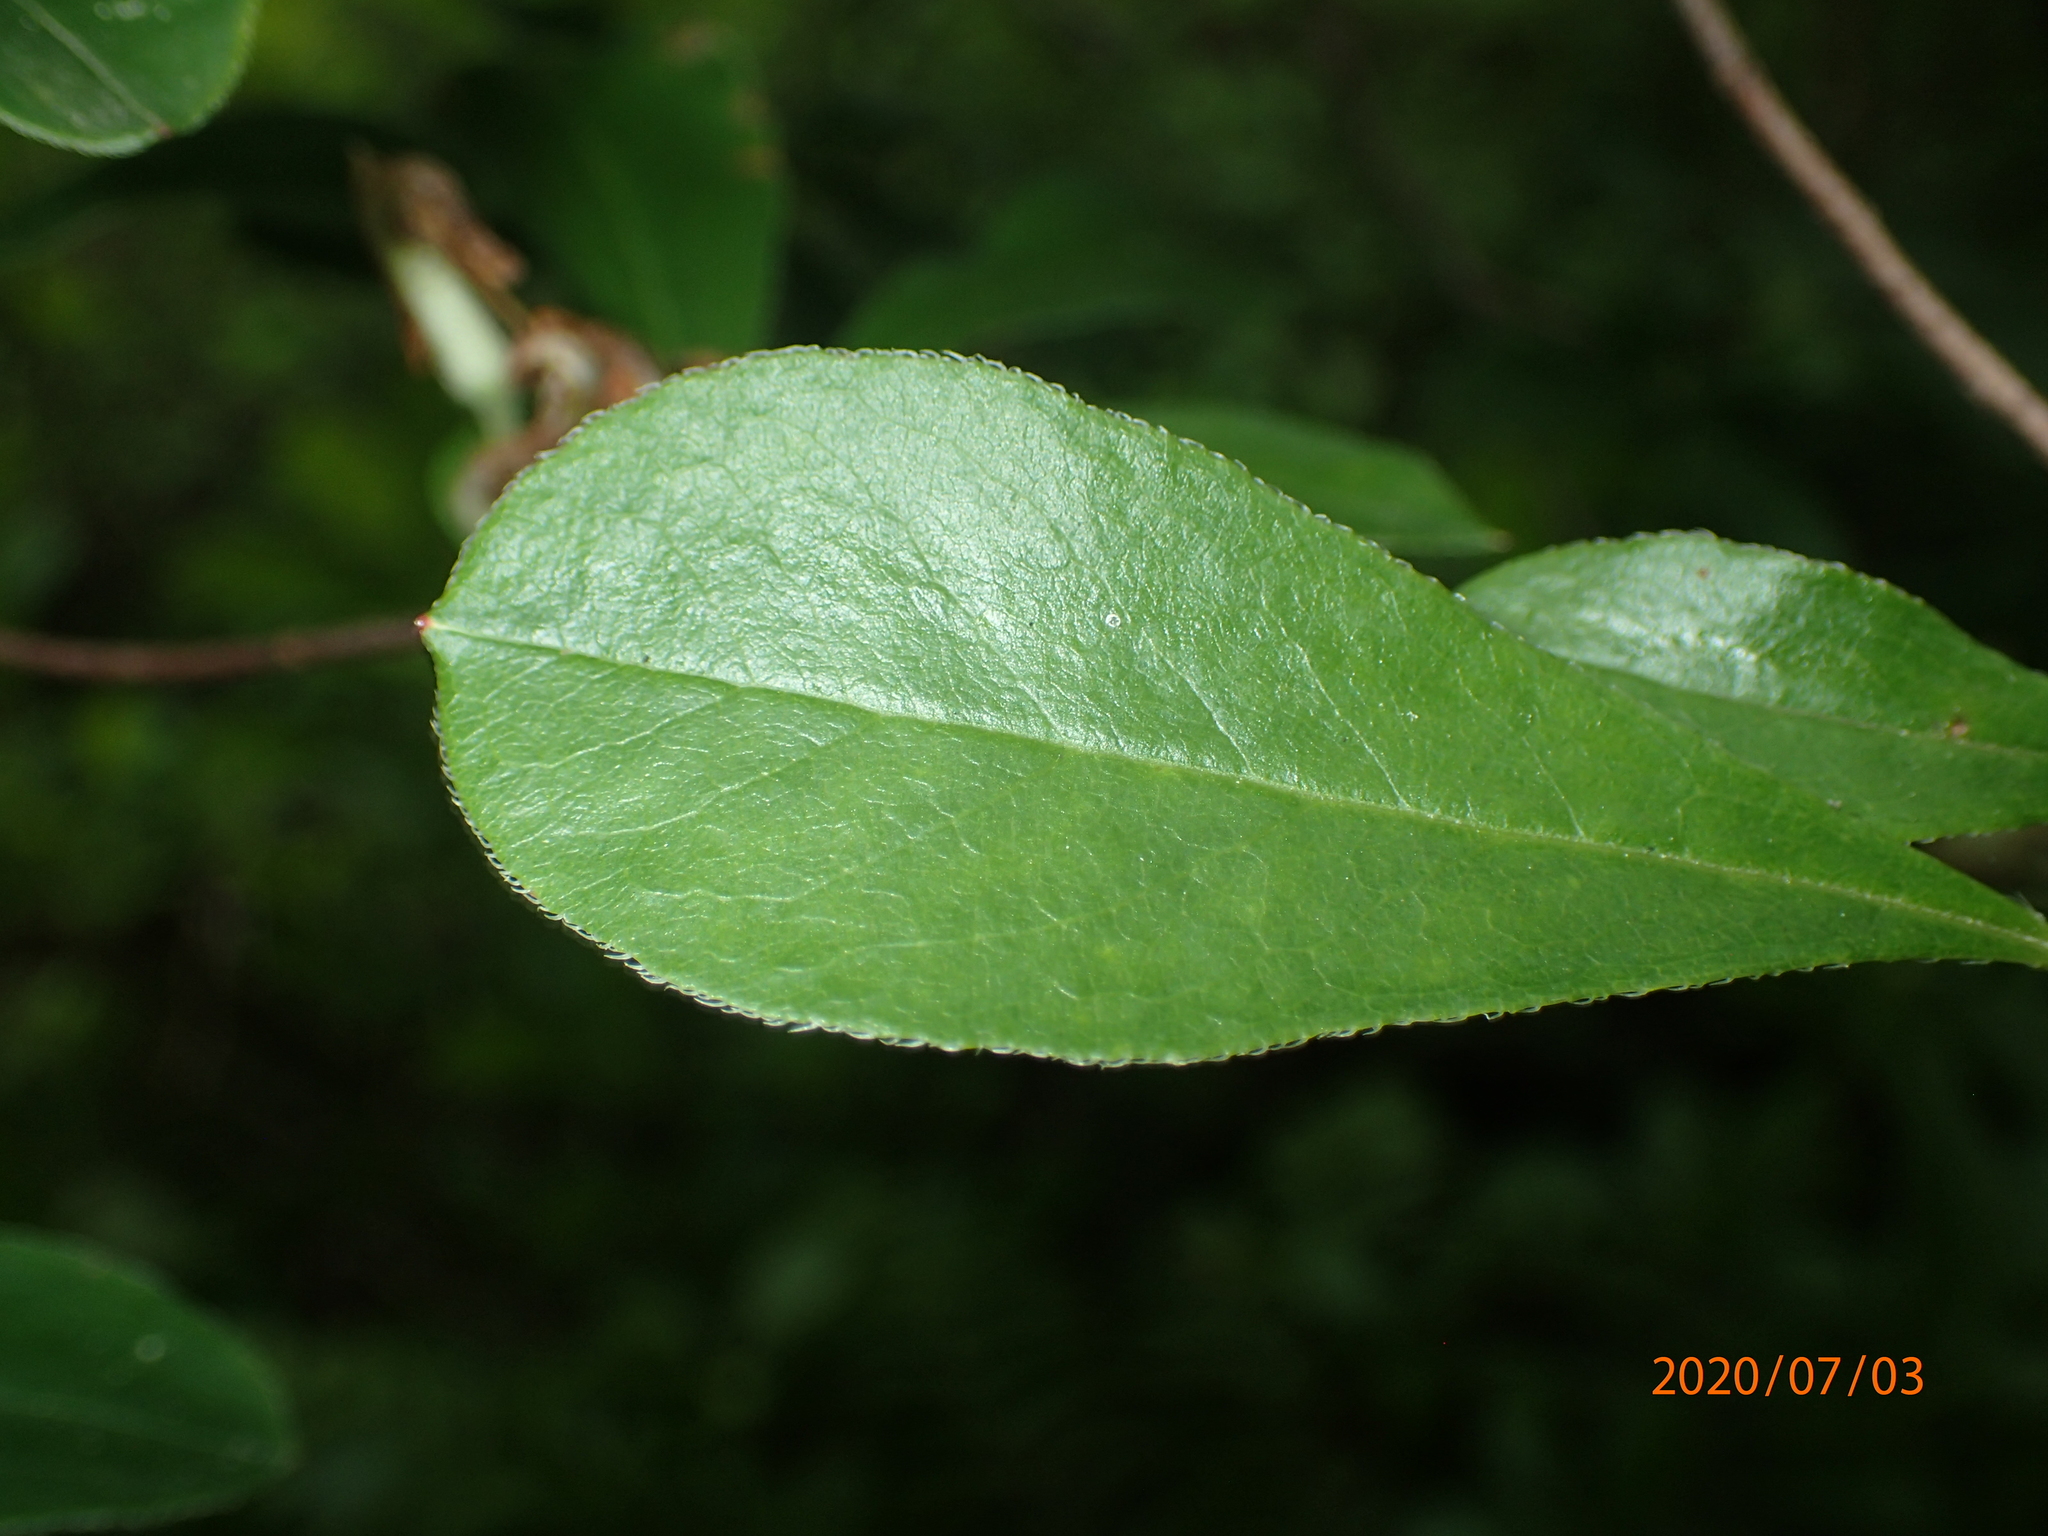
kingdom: Plantae
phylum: Tracheophyta
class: Magnoliopsida
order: Ericales
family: Ericaceae
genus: Rhododendron
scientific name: Rhododendron viscosum
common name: Clammy azalea
